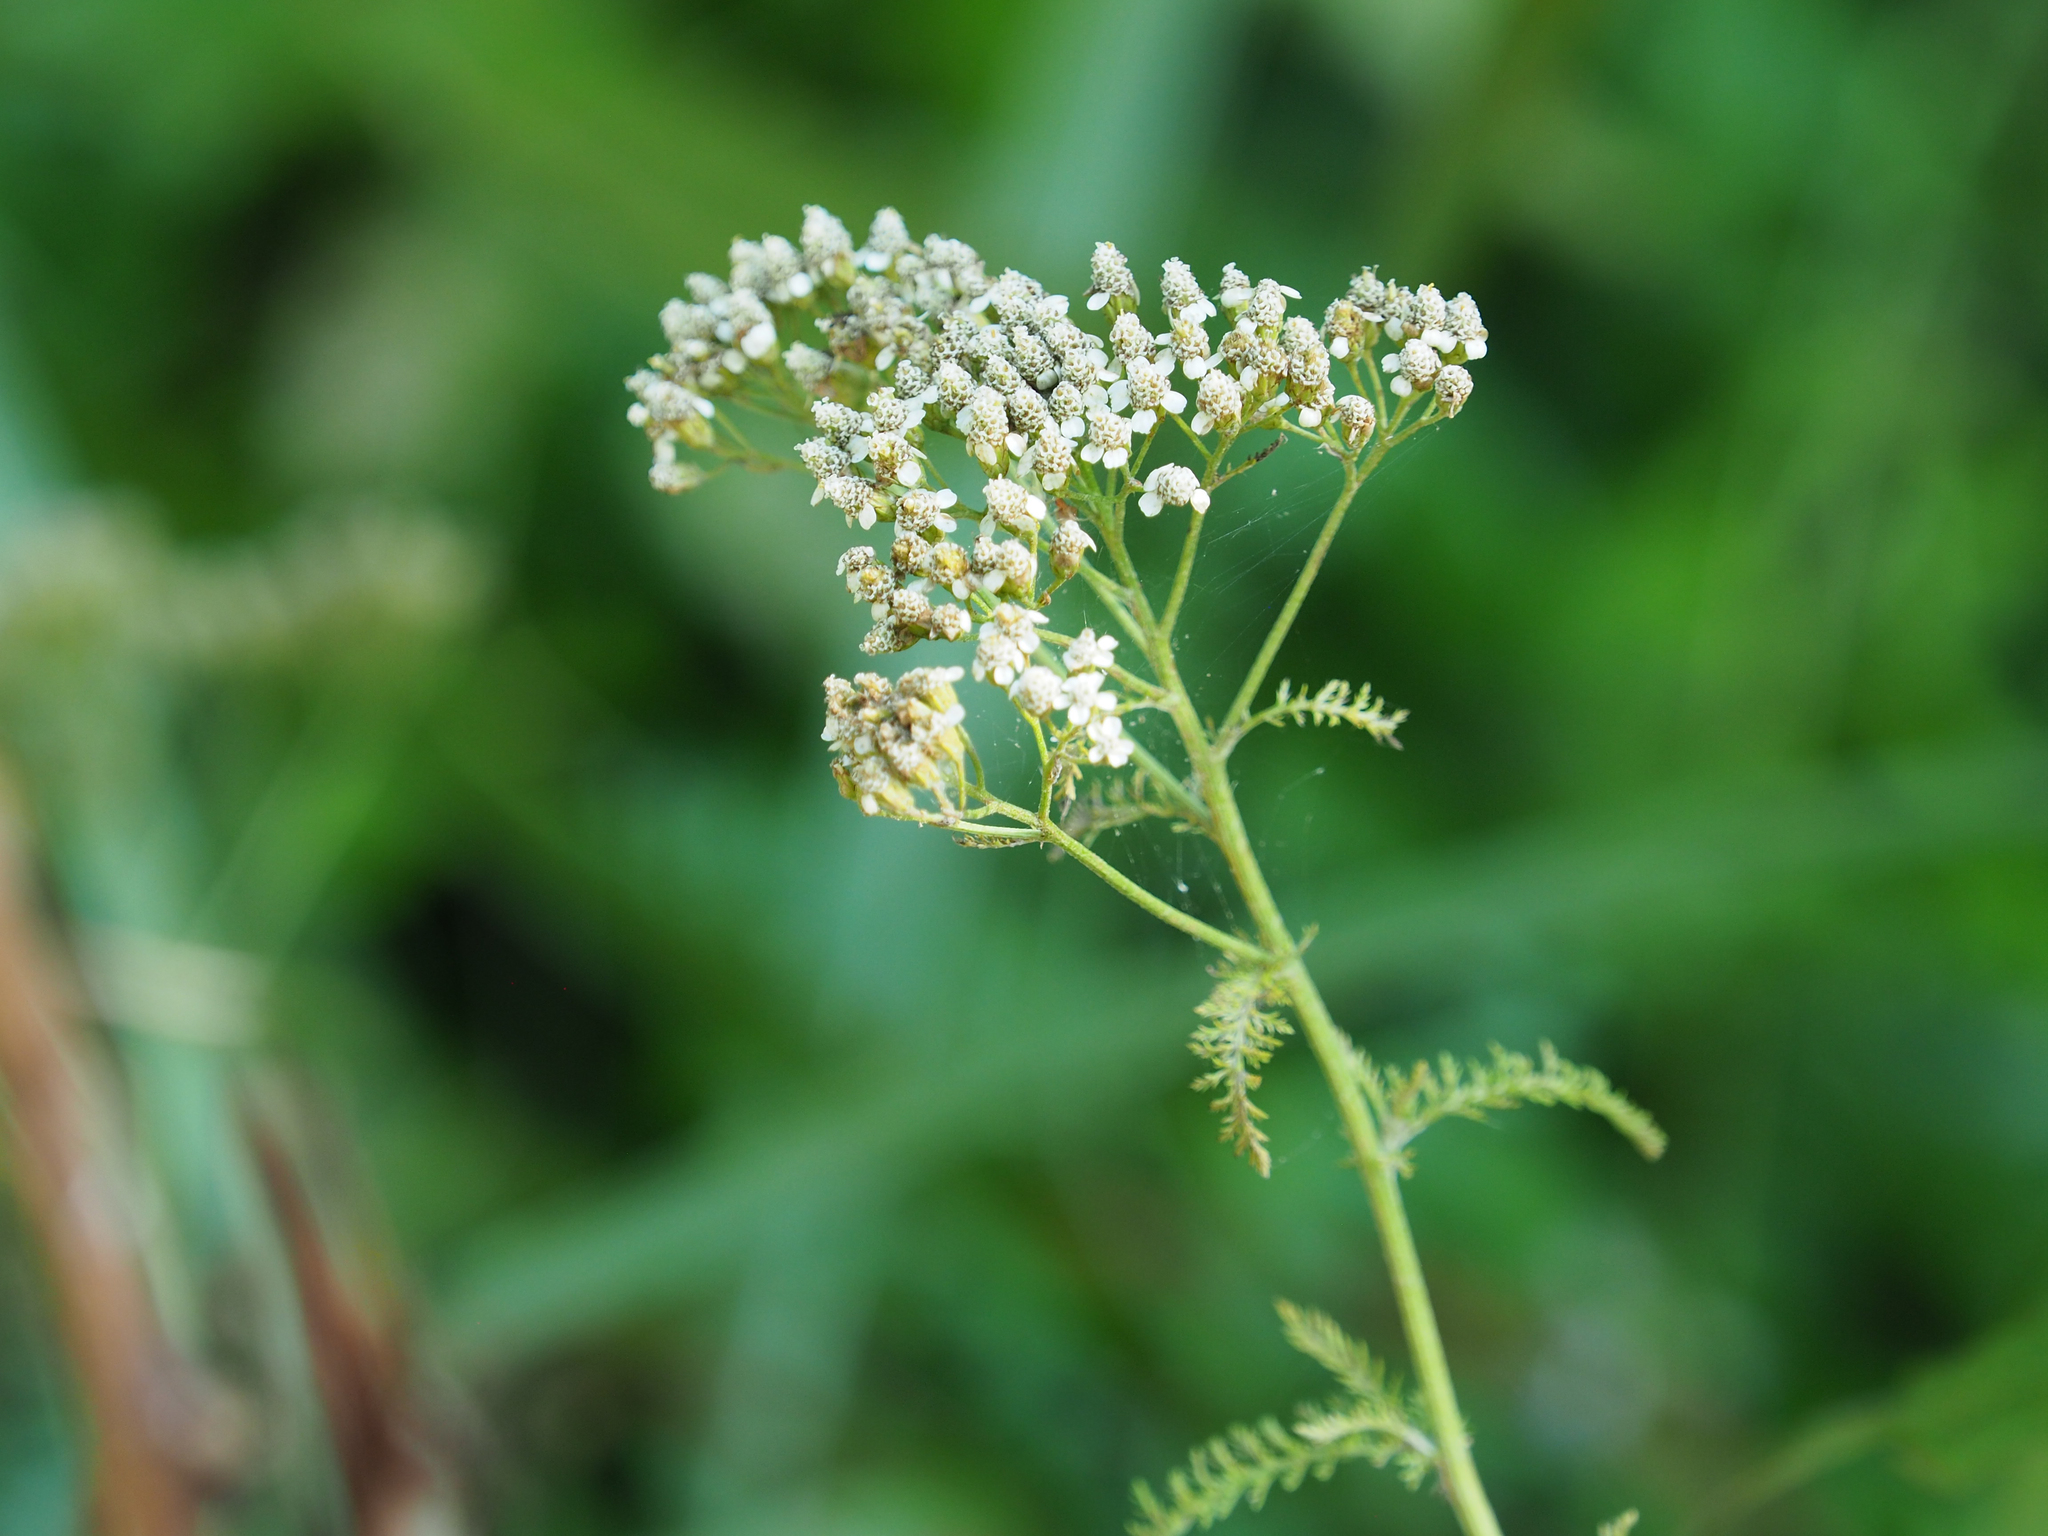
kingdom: Plantae
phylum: Tracheophyta
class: Magnoliopsida
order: Asterales
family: Asteraceae
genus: Achillea
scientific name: Achillea millefolium
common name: Yarrow
